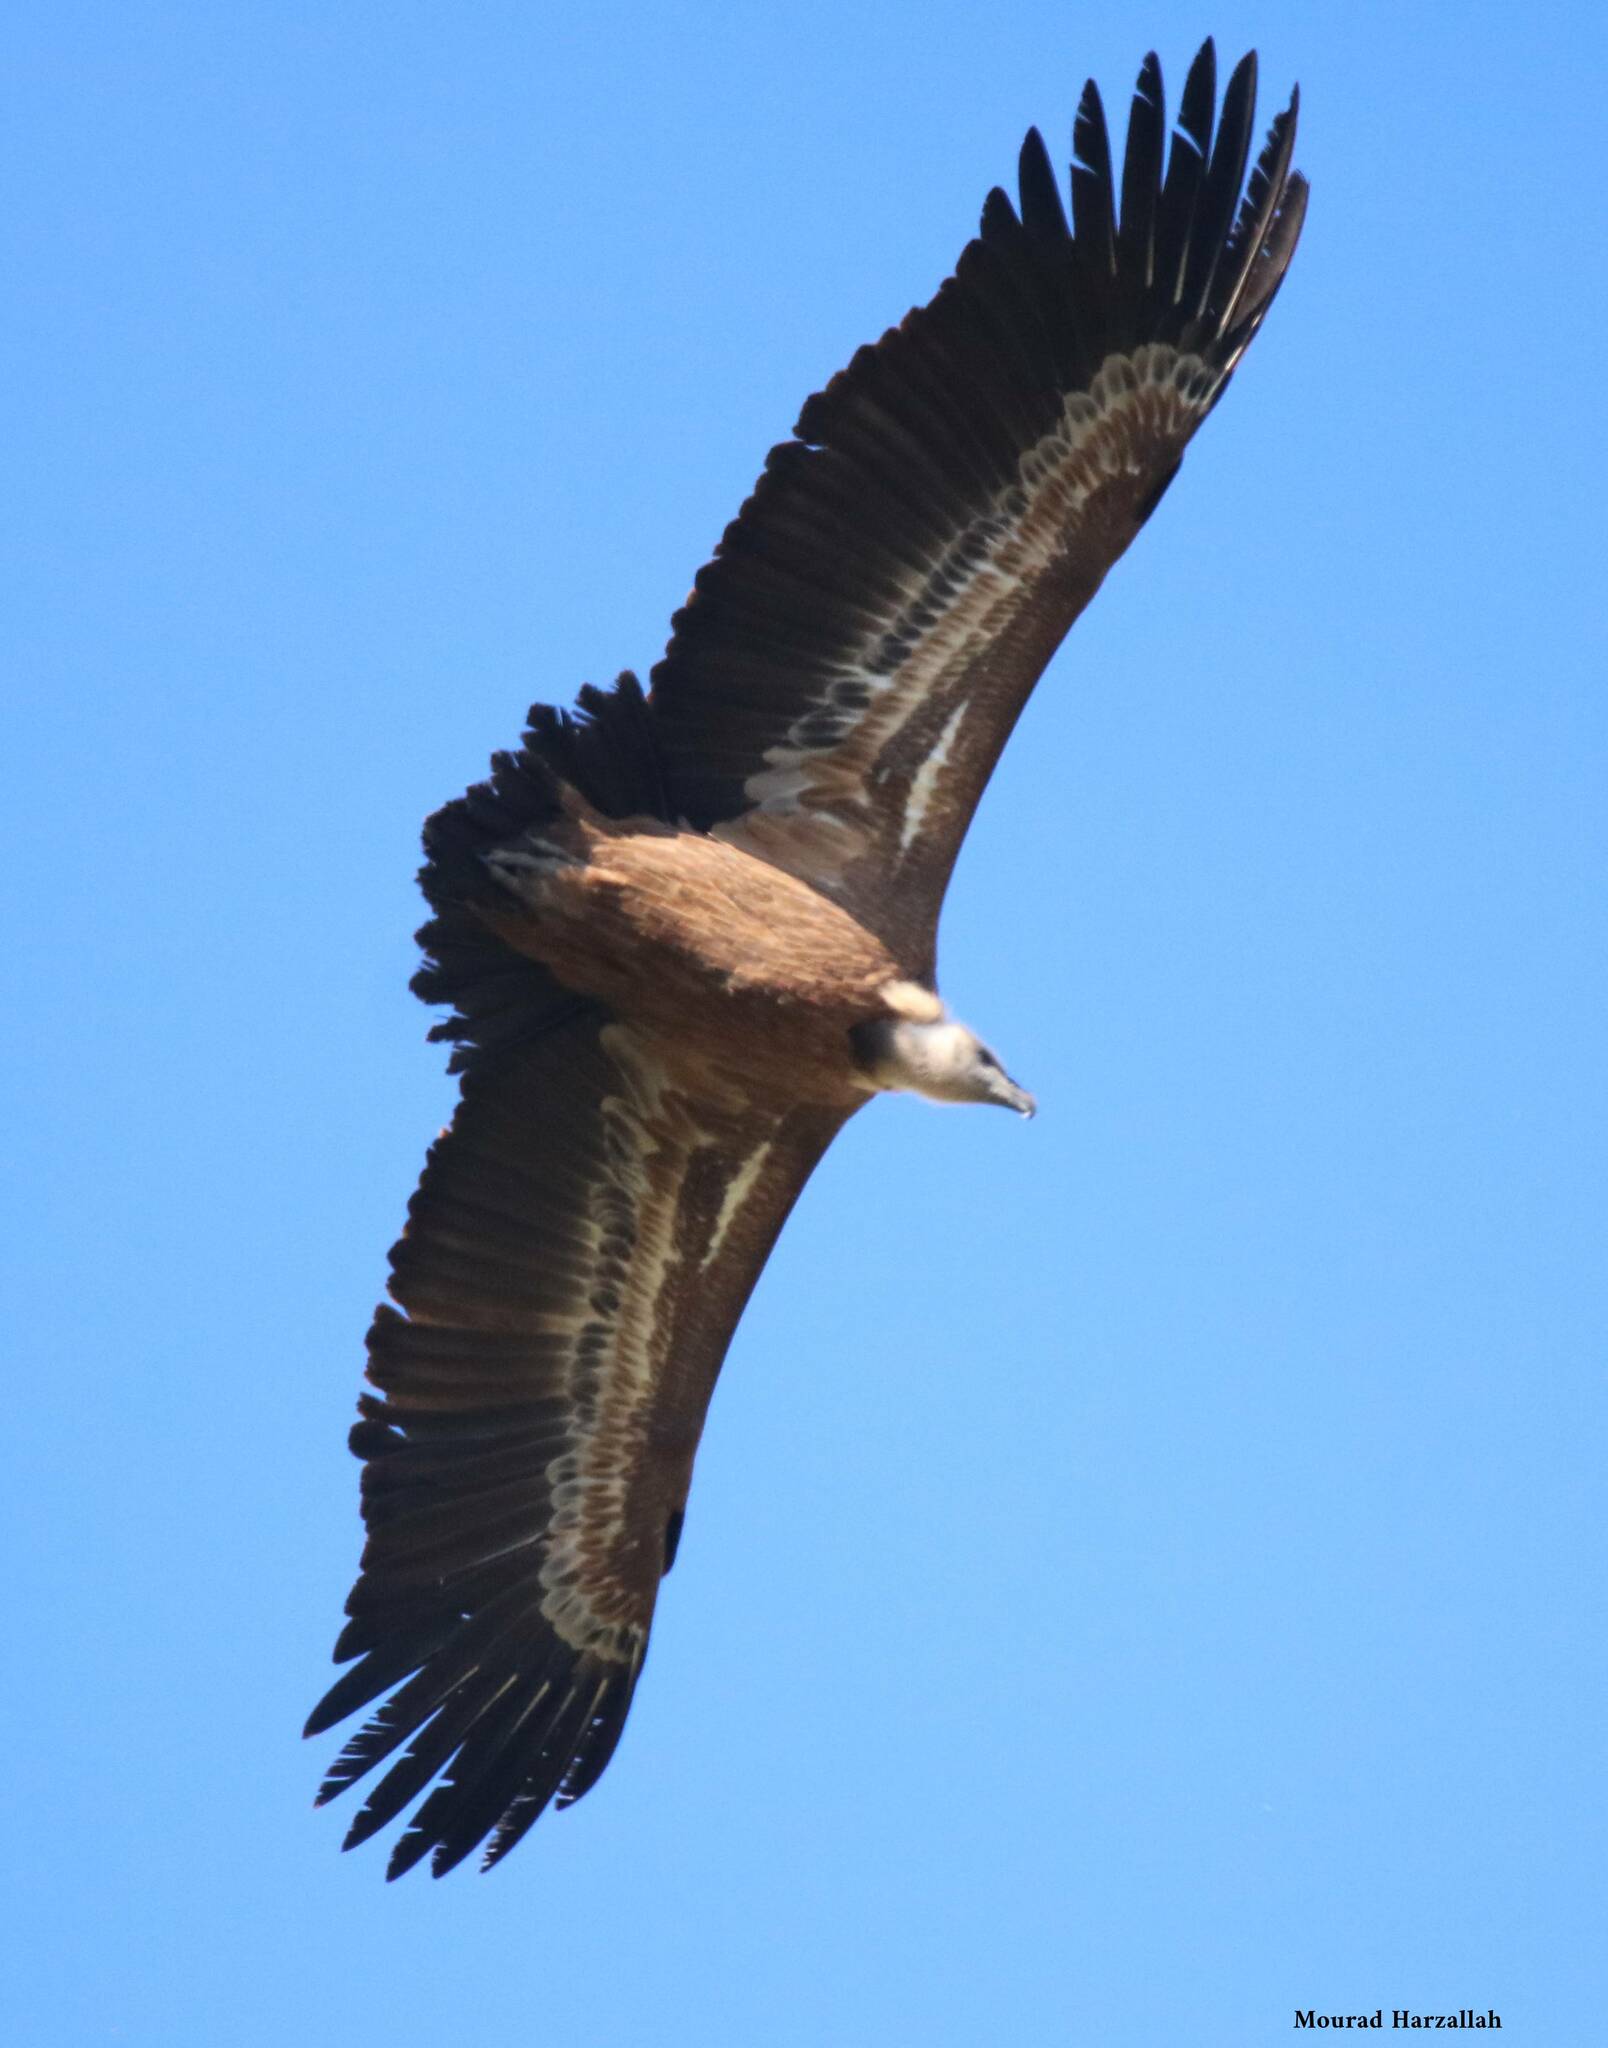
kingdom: Animalia
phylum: Chordata
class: Aves
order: Accipitriformes
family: Accipitridae
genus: Gyps
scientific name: Gyps fulvus
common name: Griffon vulture
